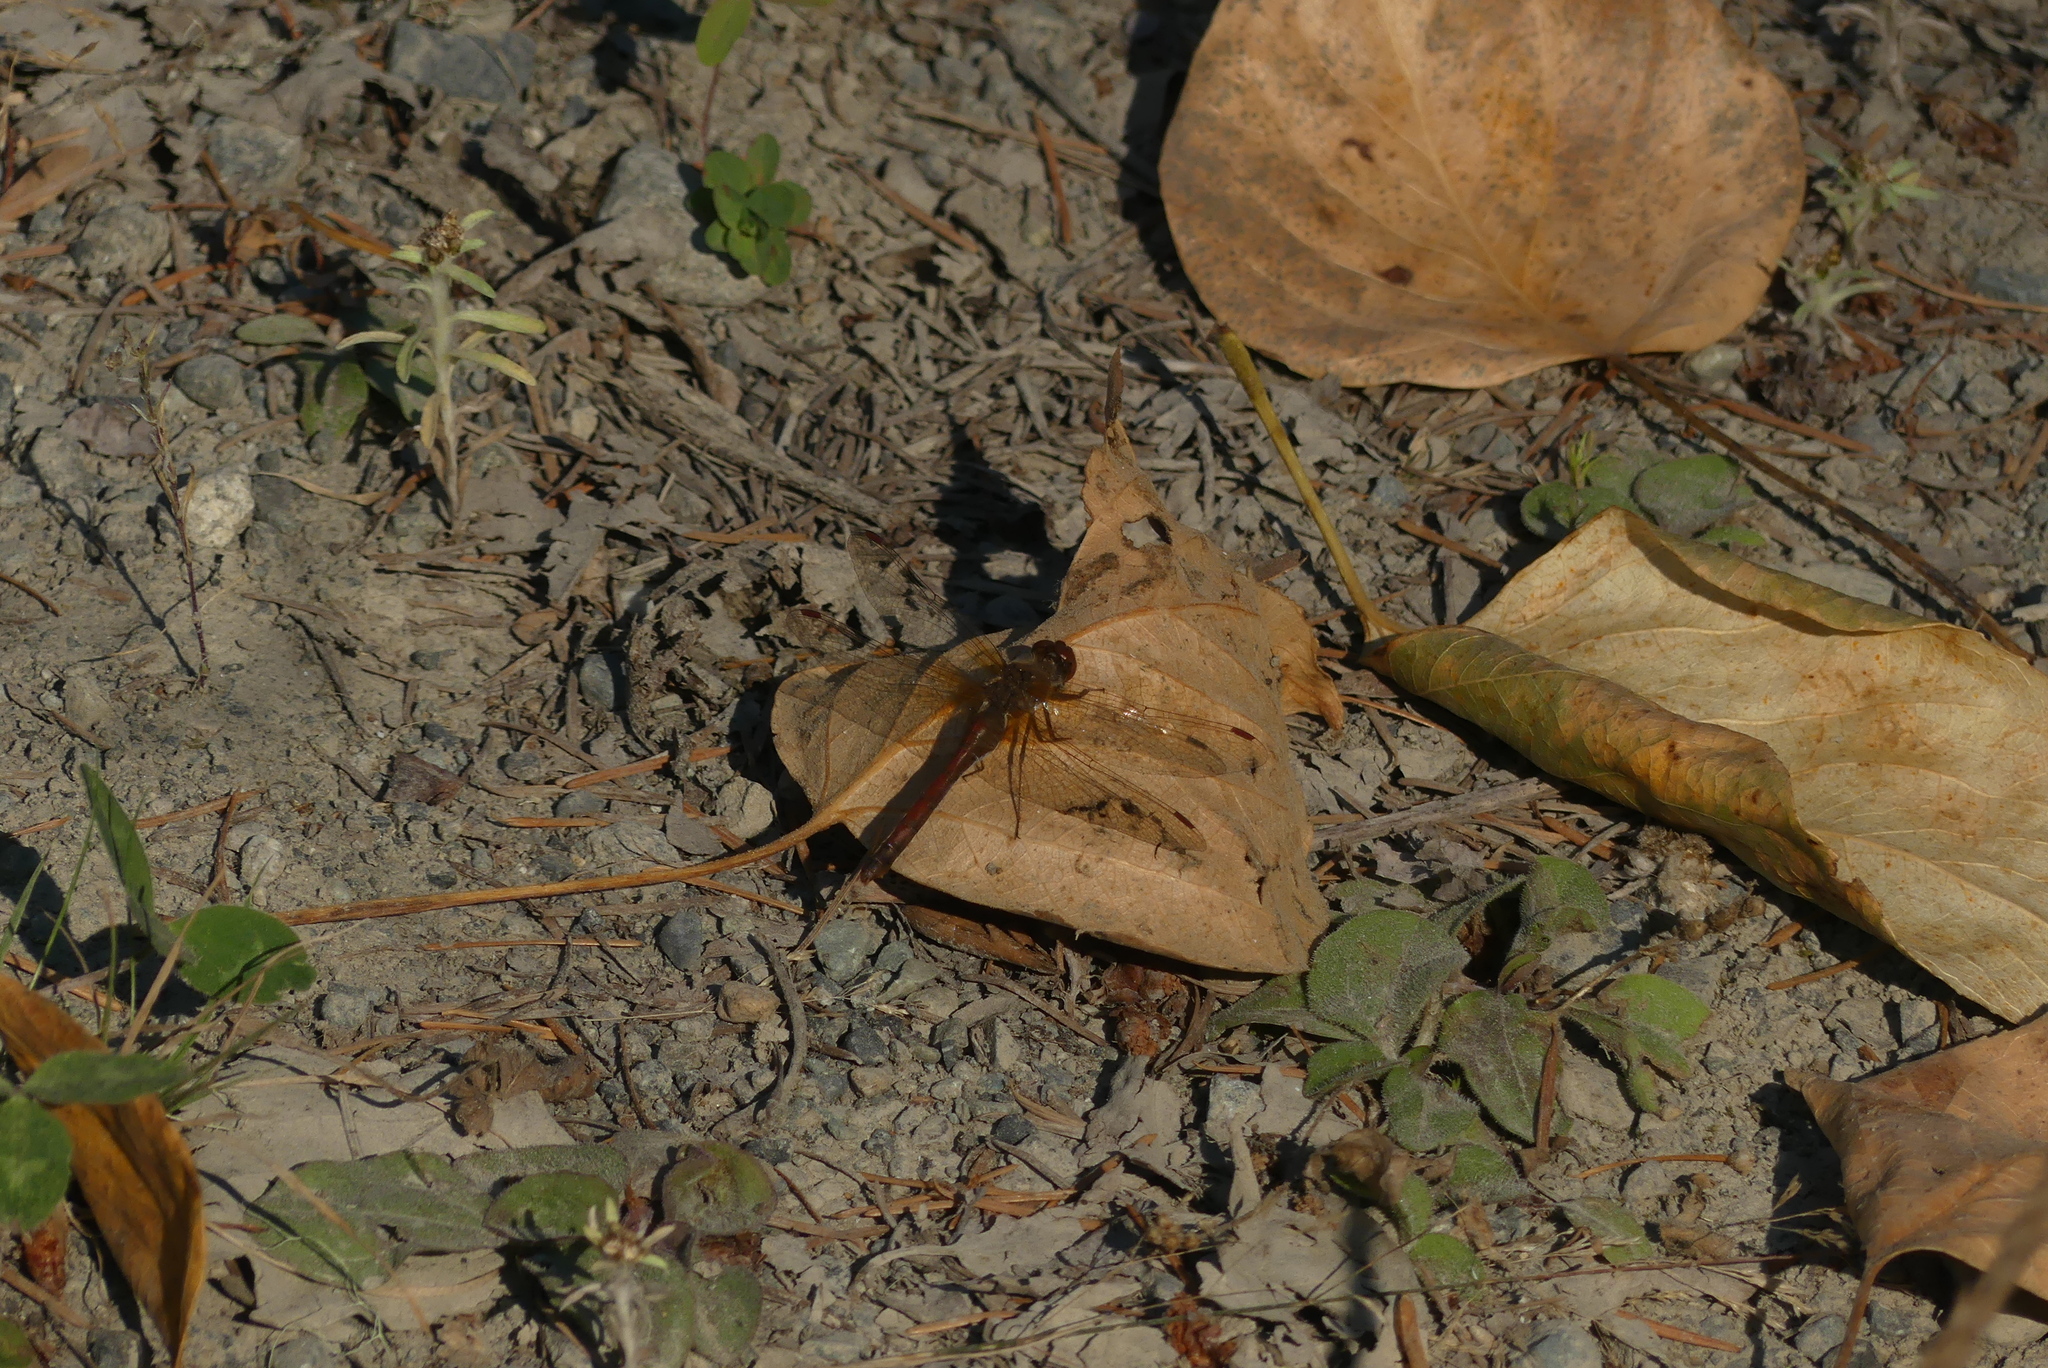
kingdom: Animalia
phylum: Arthropoda
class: Insecta
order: Odonata
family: Libellulidae
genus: Sympetrum
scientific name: Sympetrum vicinum
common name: Autumn meadowhawk
